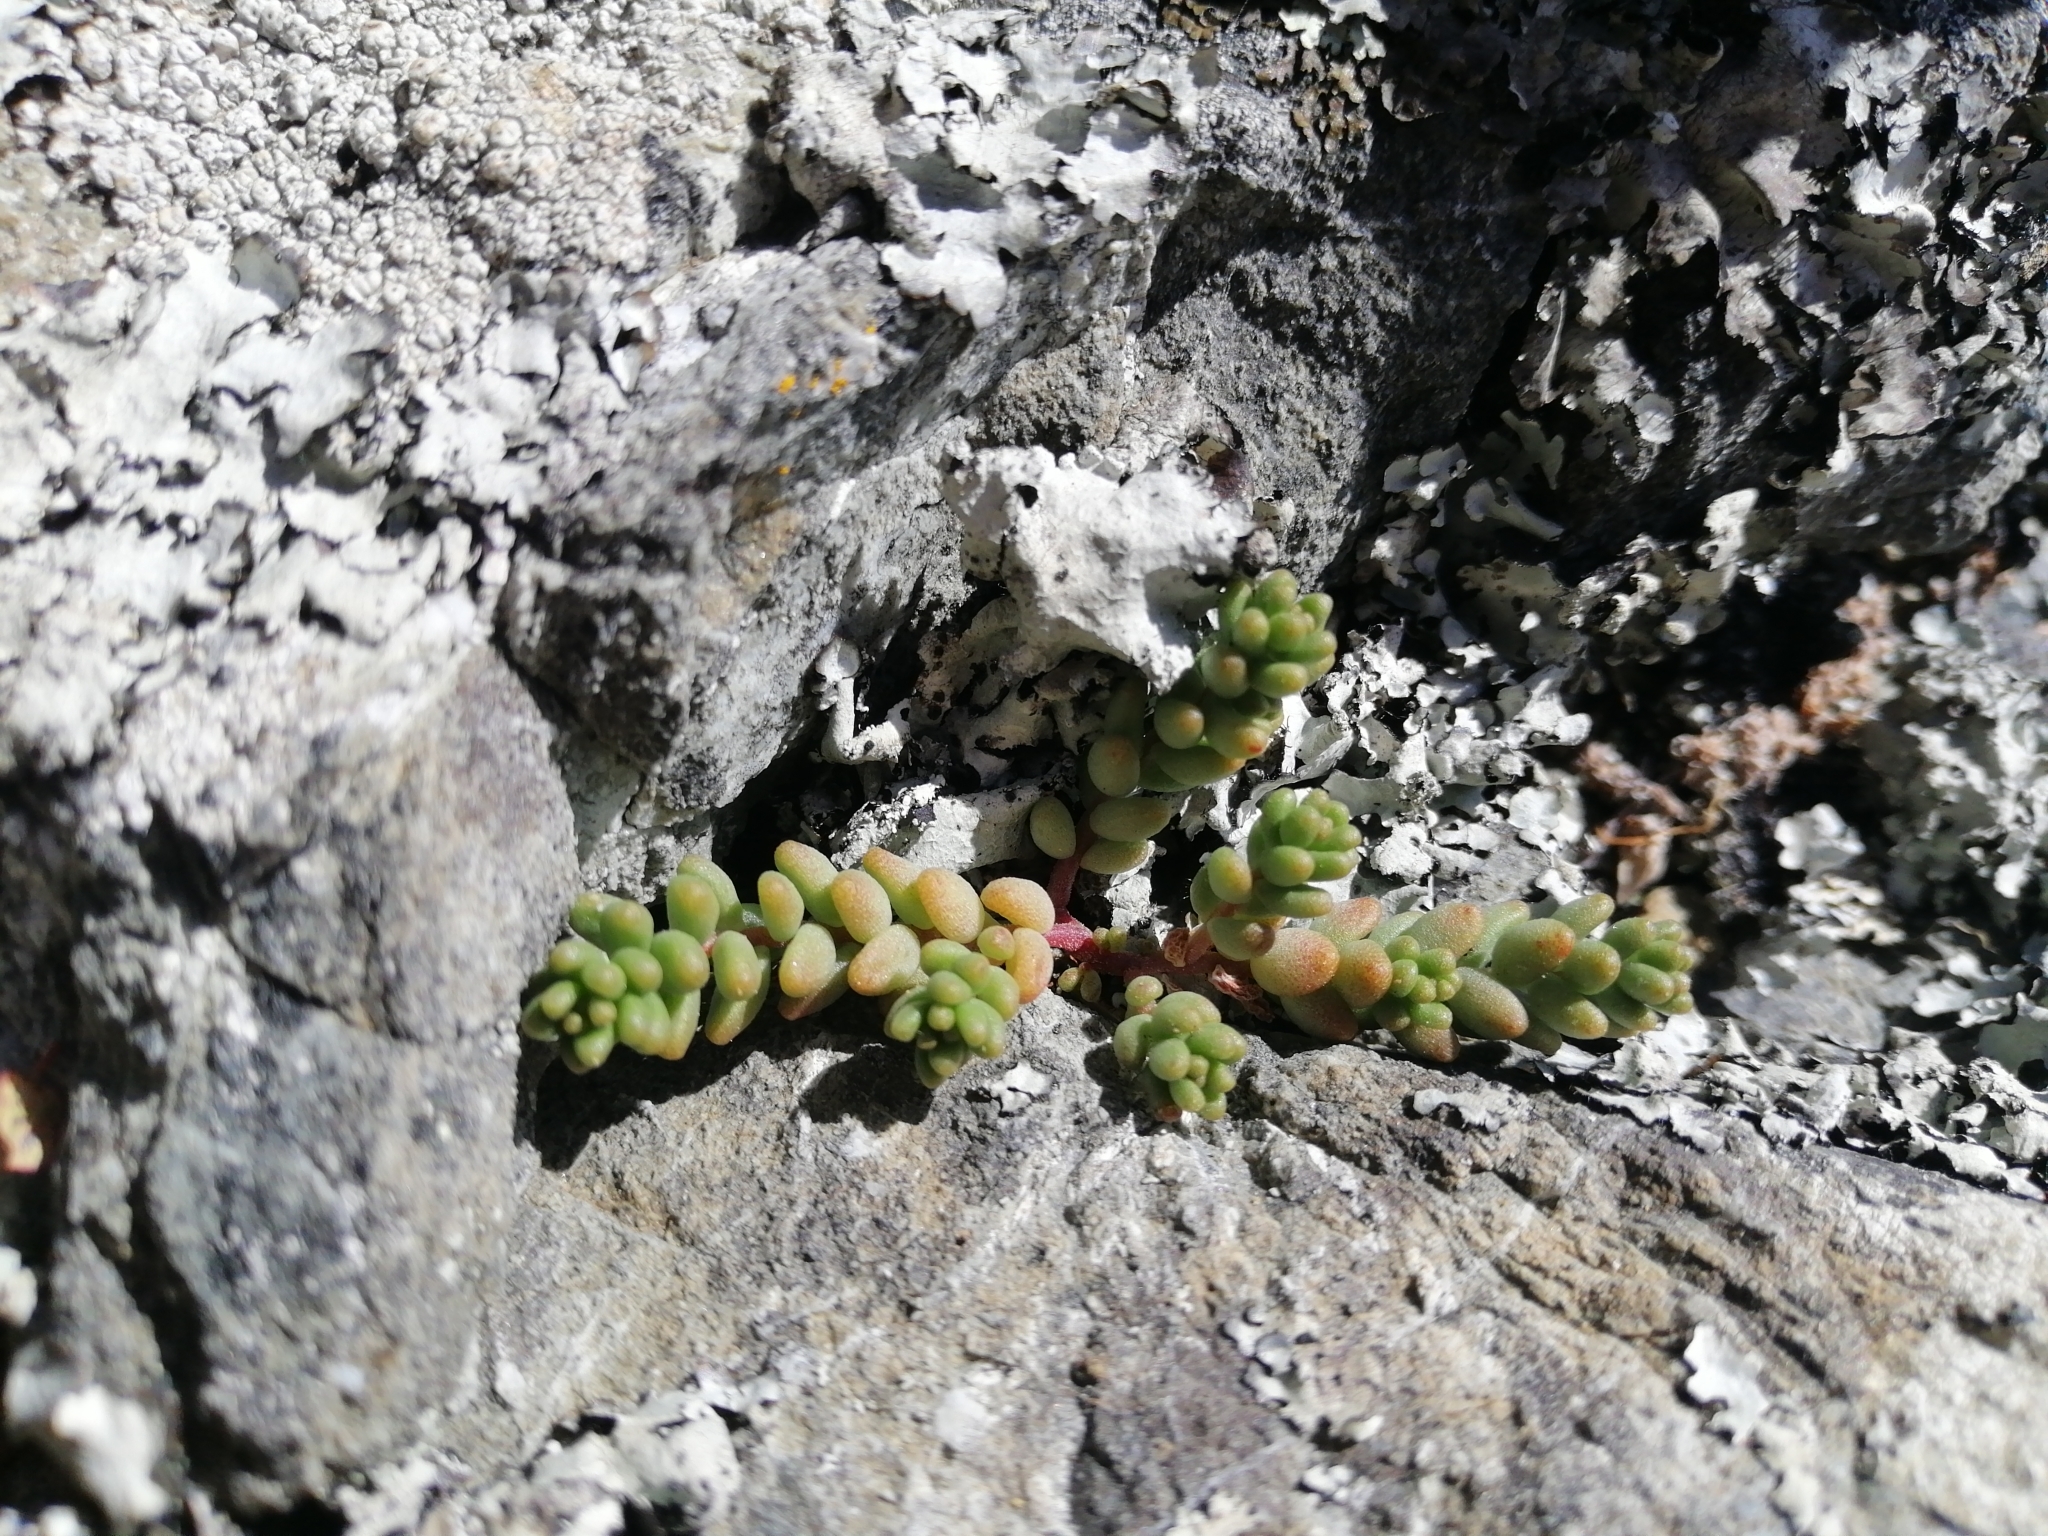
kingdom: Plantae
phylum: Tracheophyta
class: Magnoliopsida
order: Saxifragales
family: Crassulaceae
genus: Sedum
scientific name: Sedum album
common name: White stonecrop
